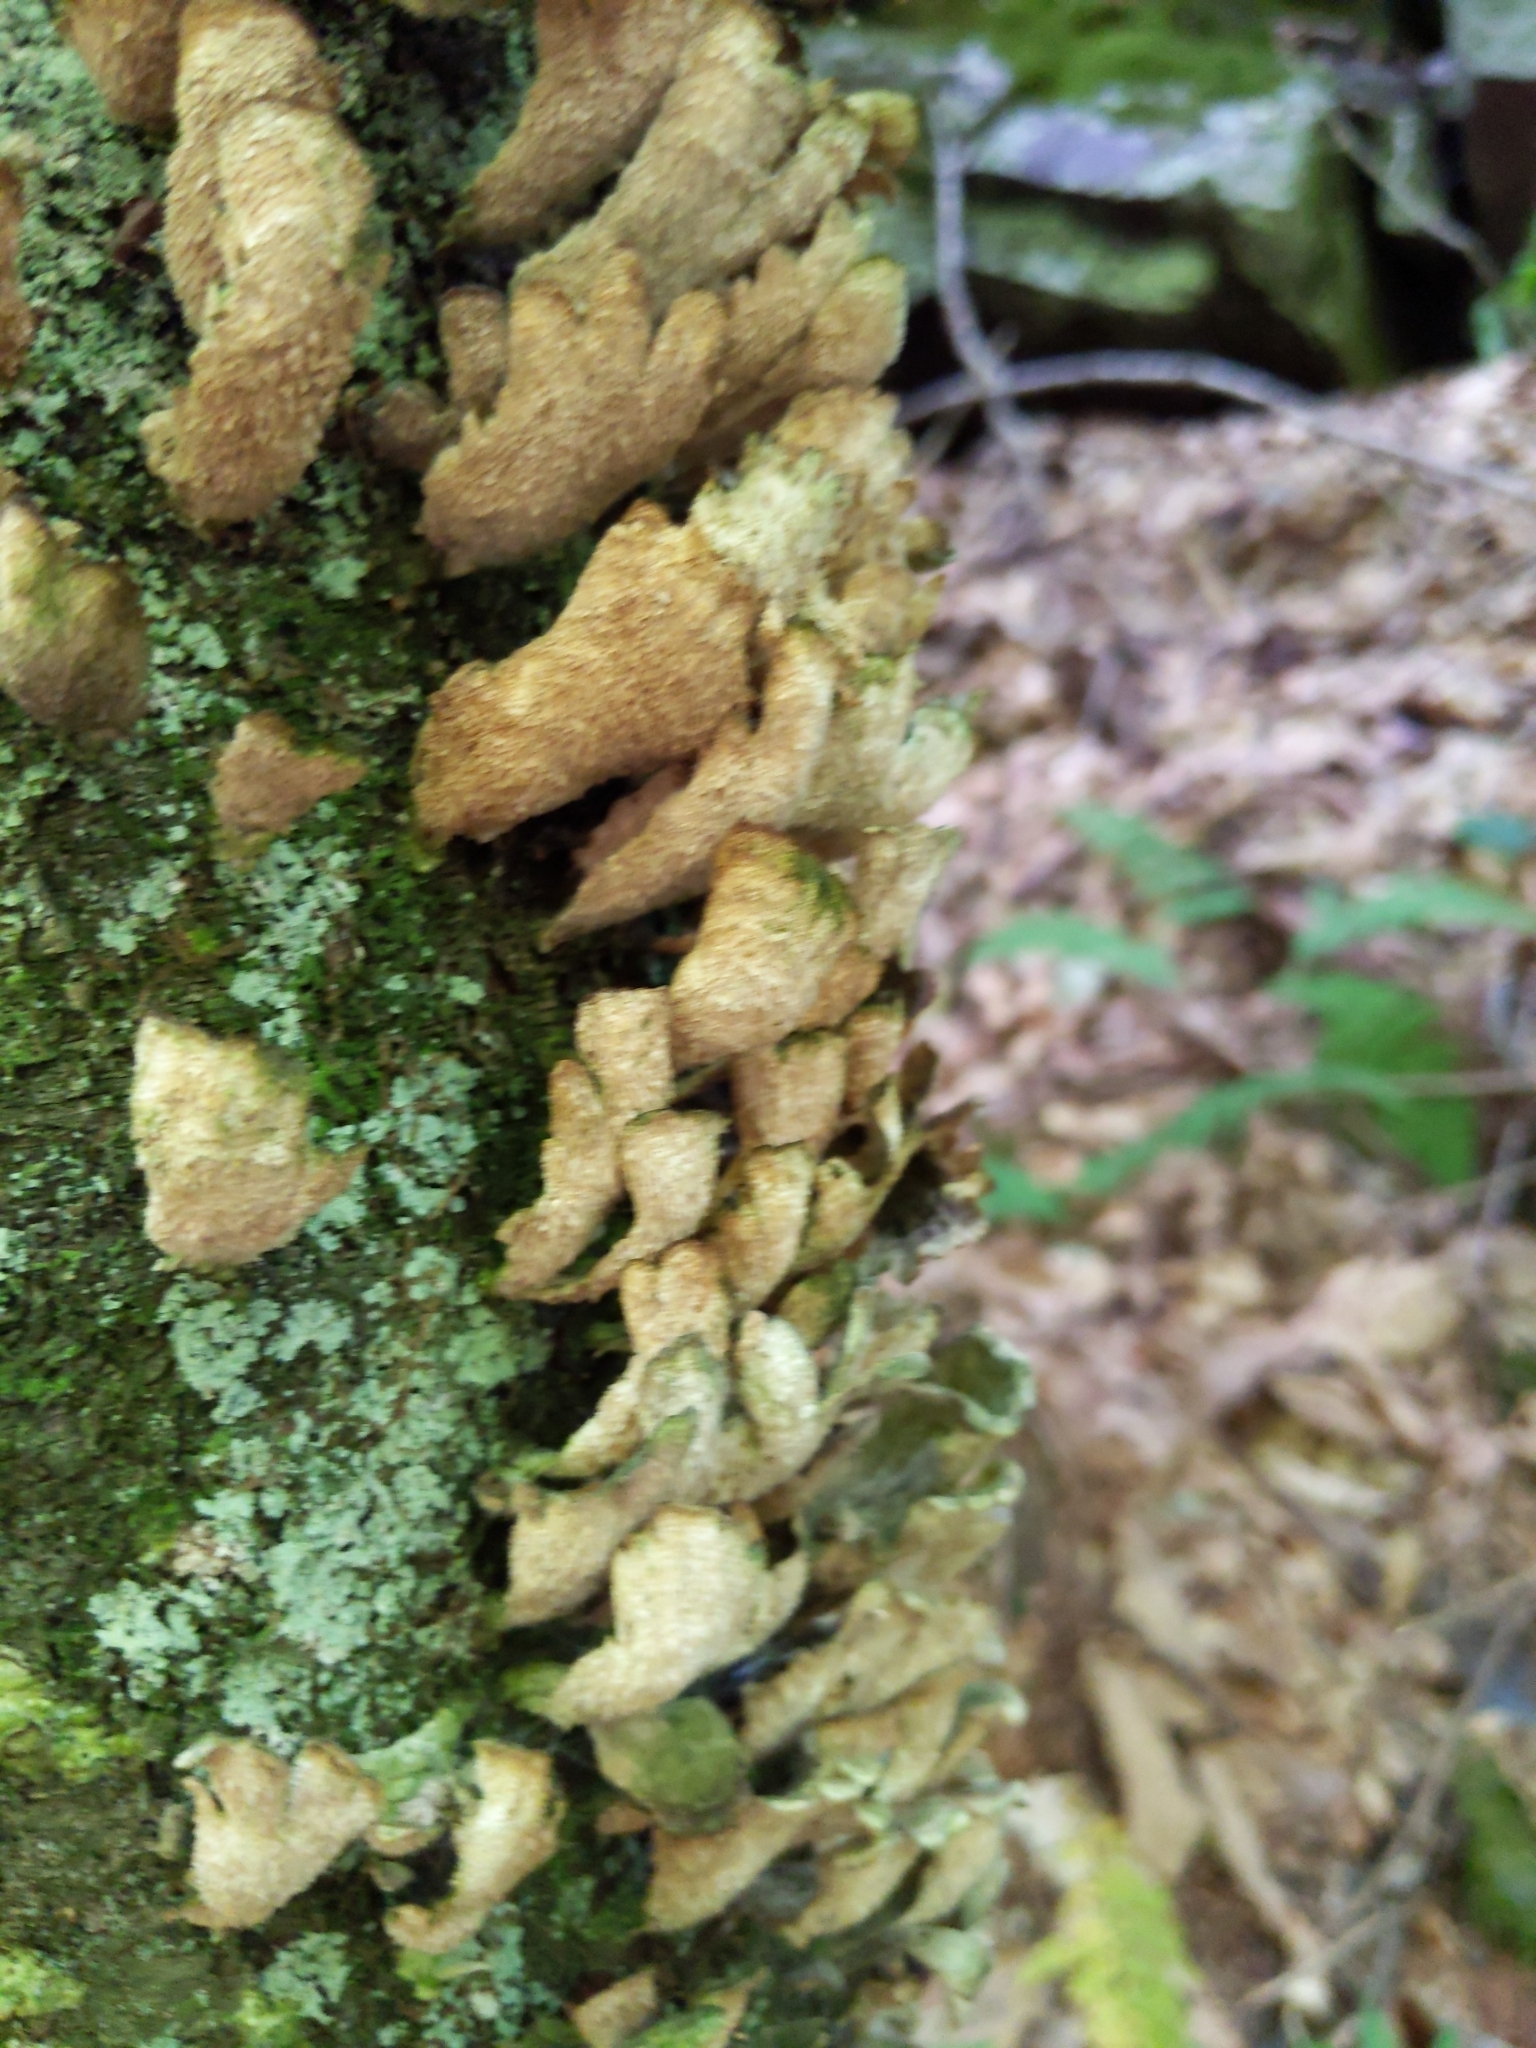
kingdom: Fungi
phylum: Basidiomycota
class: Agaricomycetes
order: Hymenochaetales
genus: Trichaptum
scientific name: Trichaptum biforme
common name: Violet-toothed polypore
